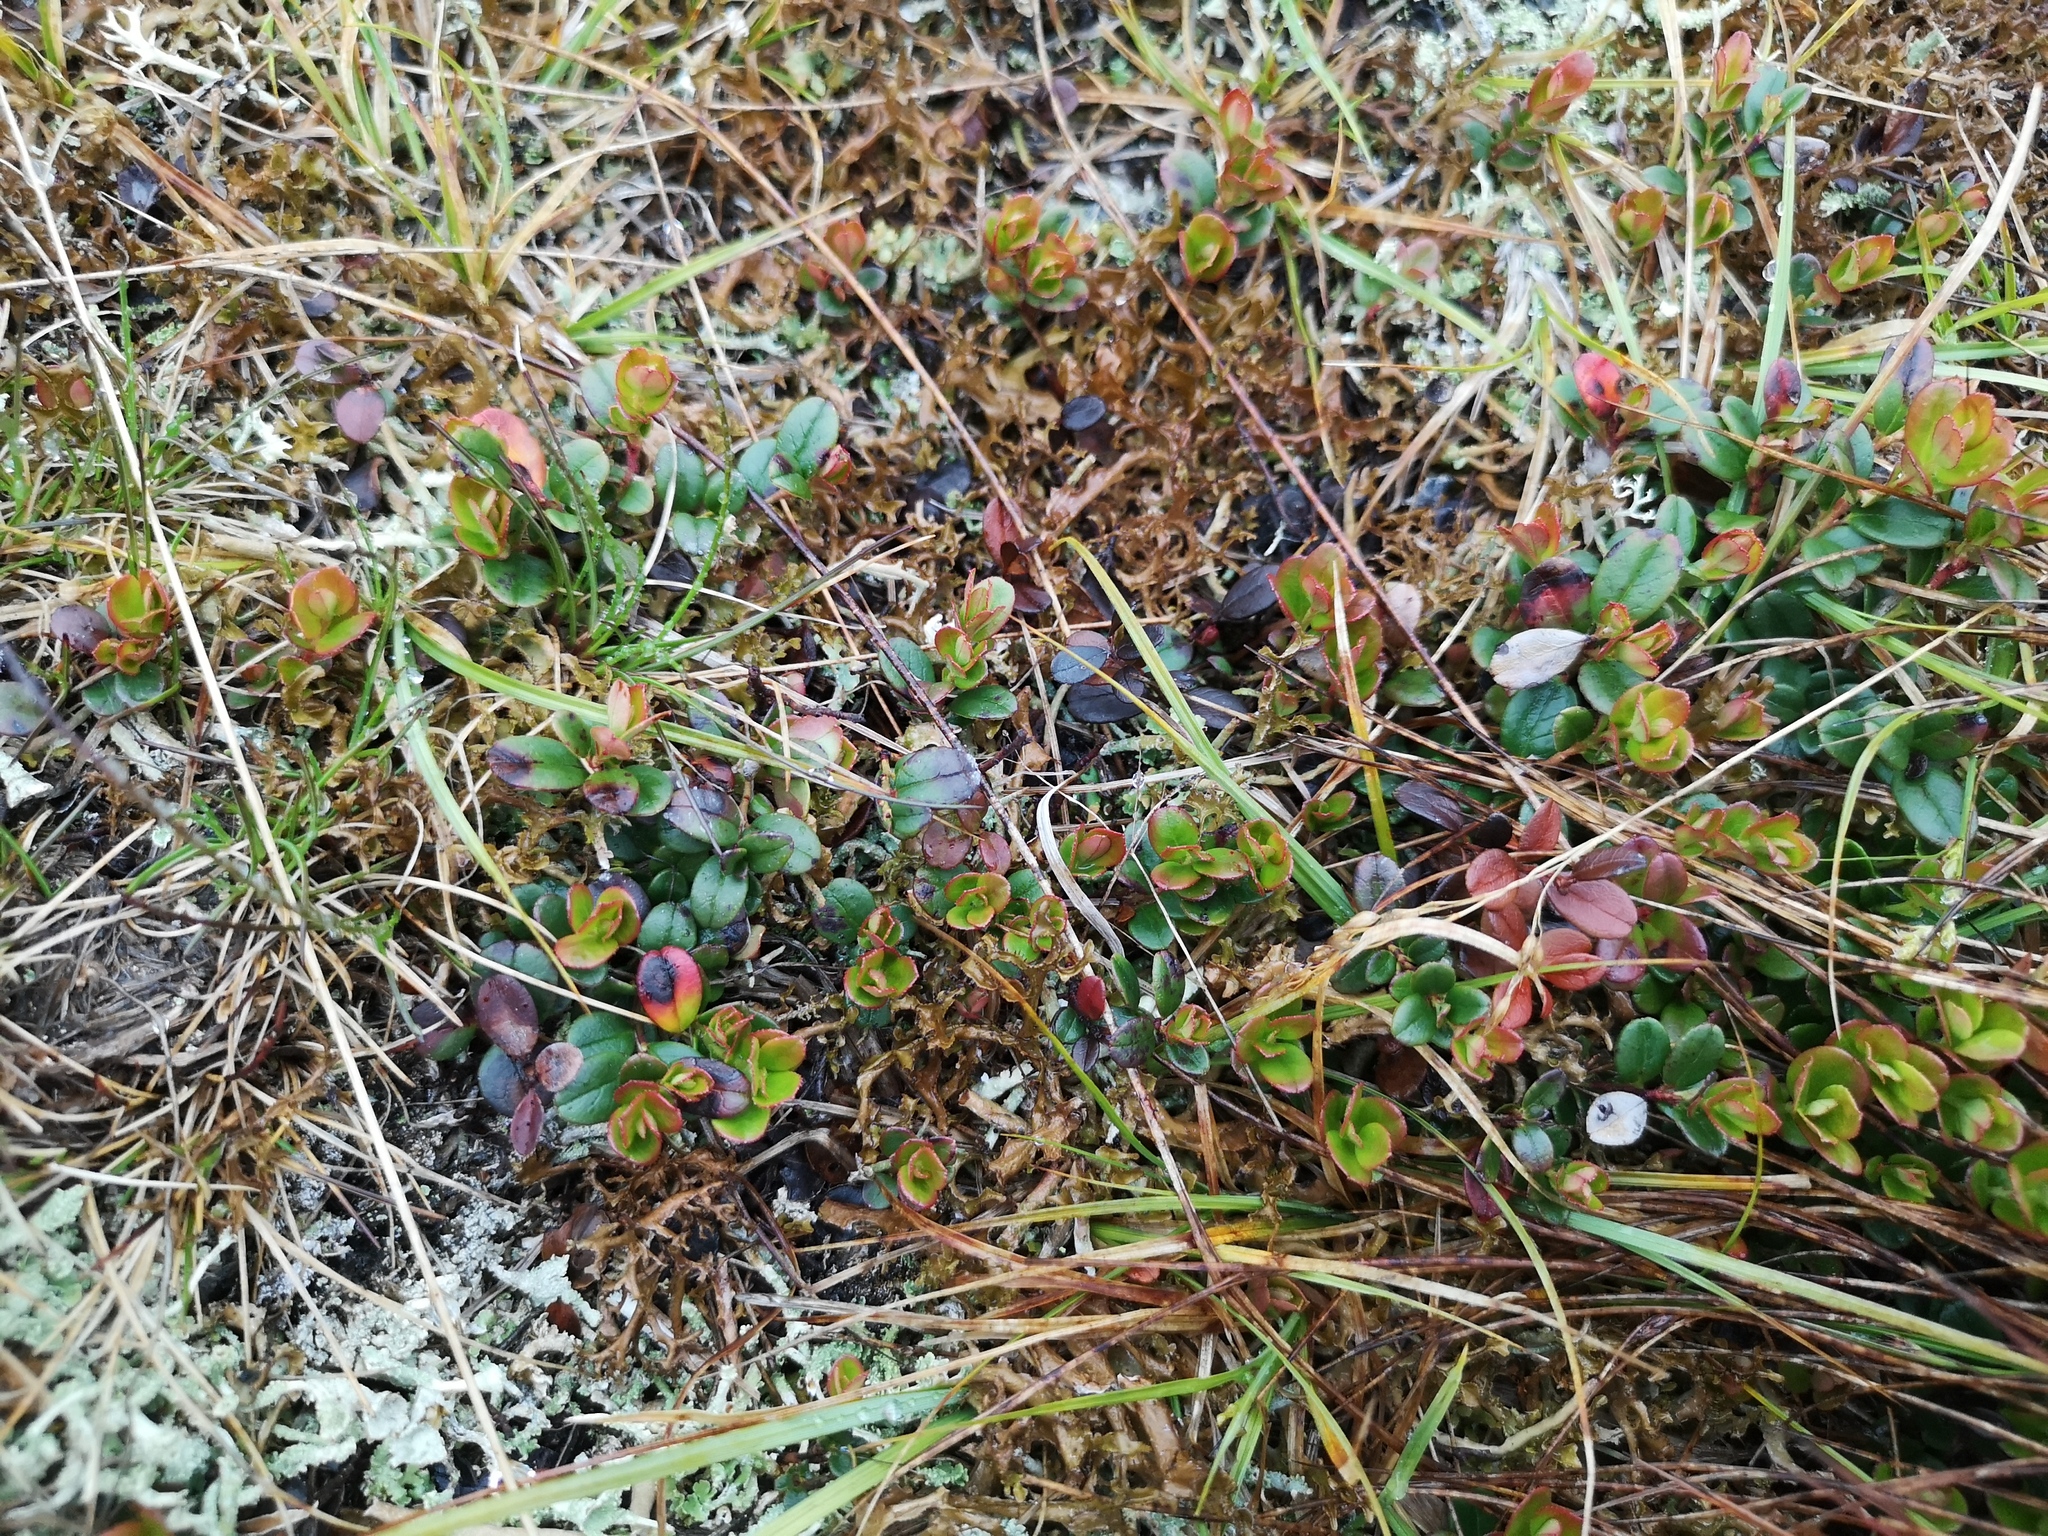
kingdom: Plantae
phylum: Tracheophyta
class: Magnoliopsida
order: Ericales
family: Ericaceae
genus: Vaccinium
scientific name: Vaccinium vitis-idaea
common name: Cowberry
